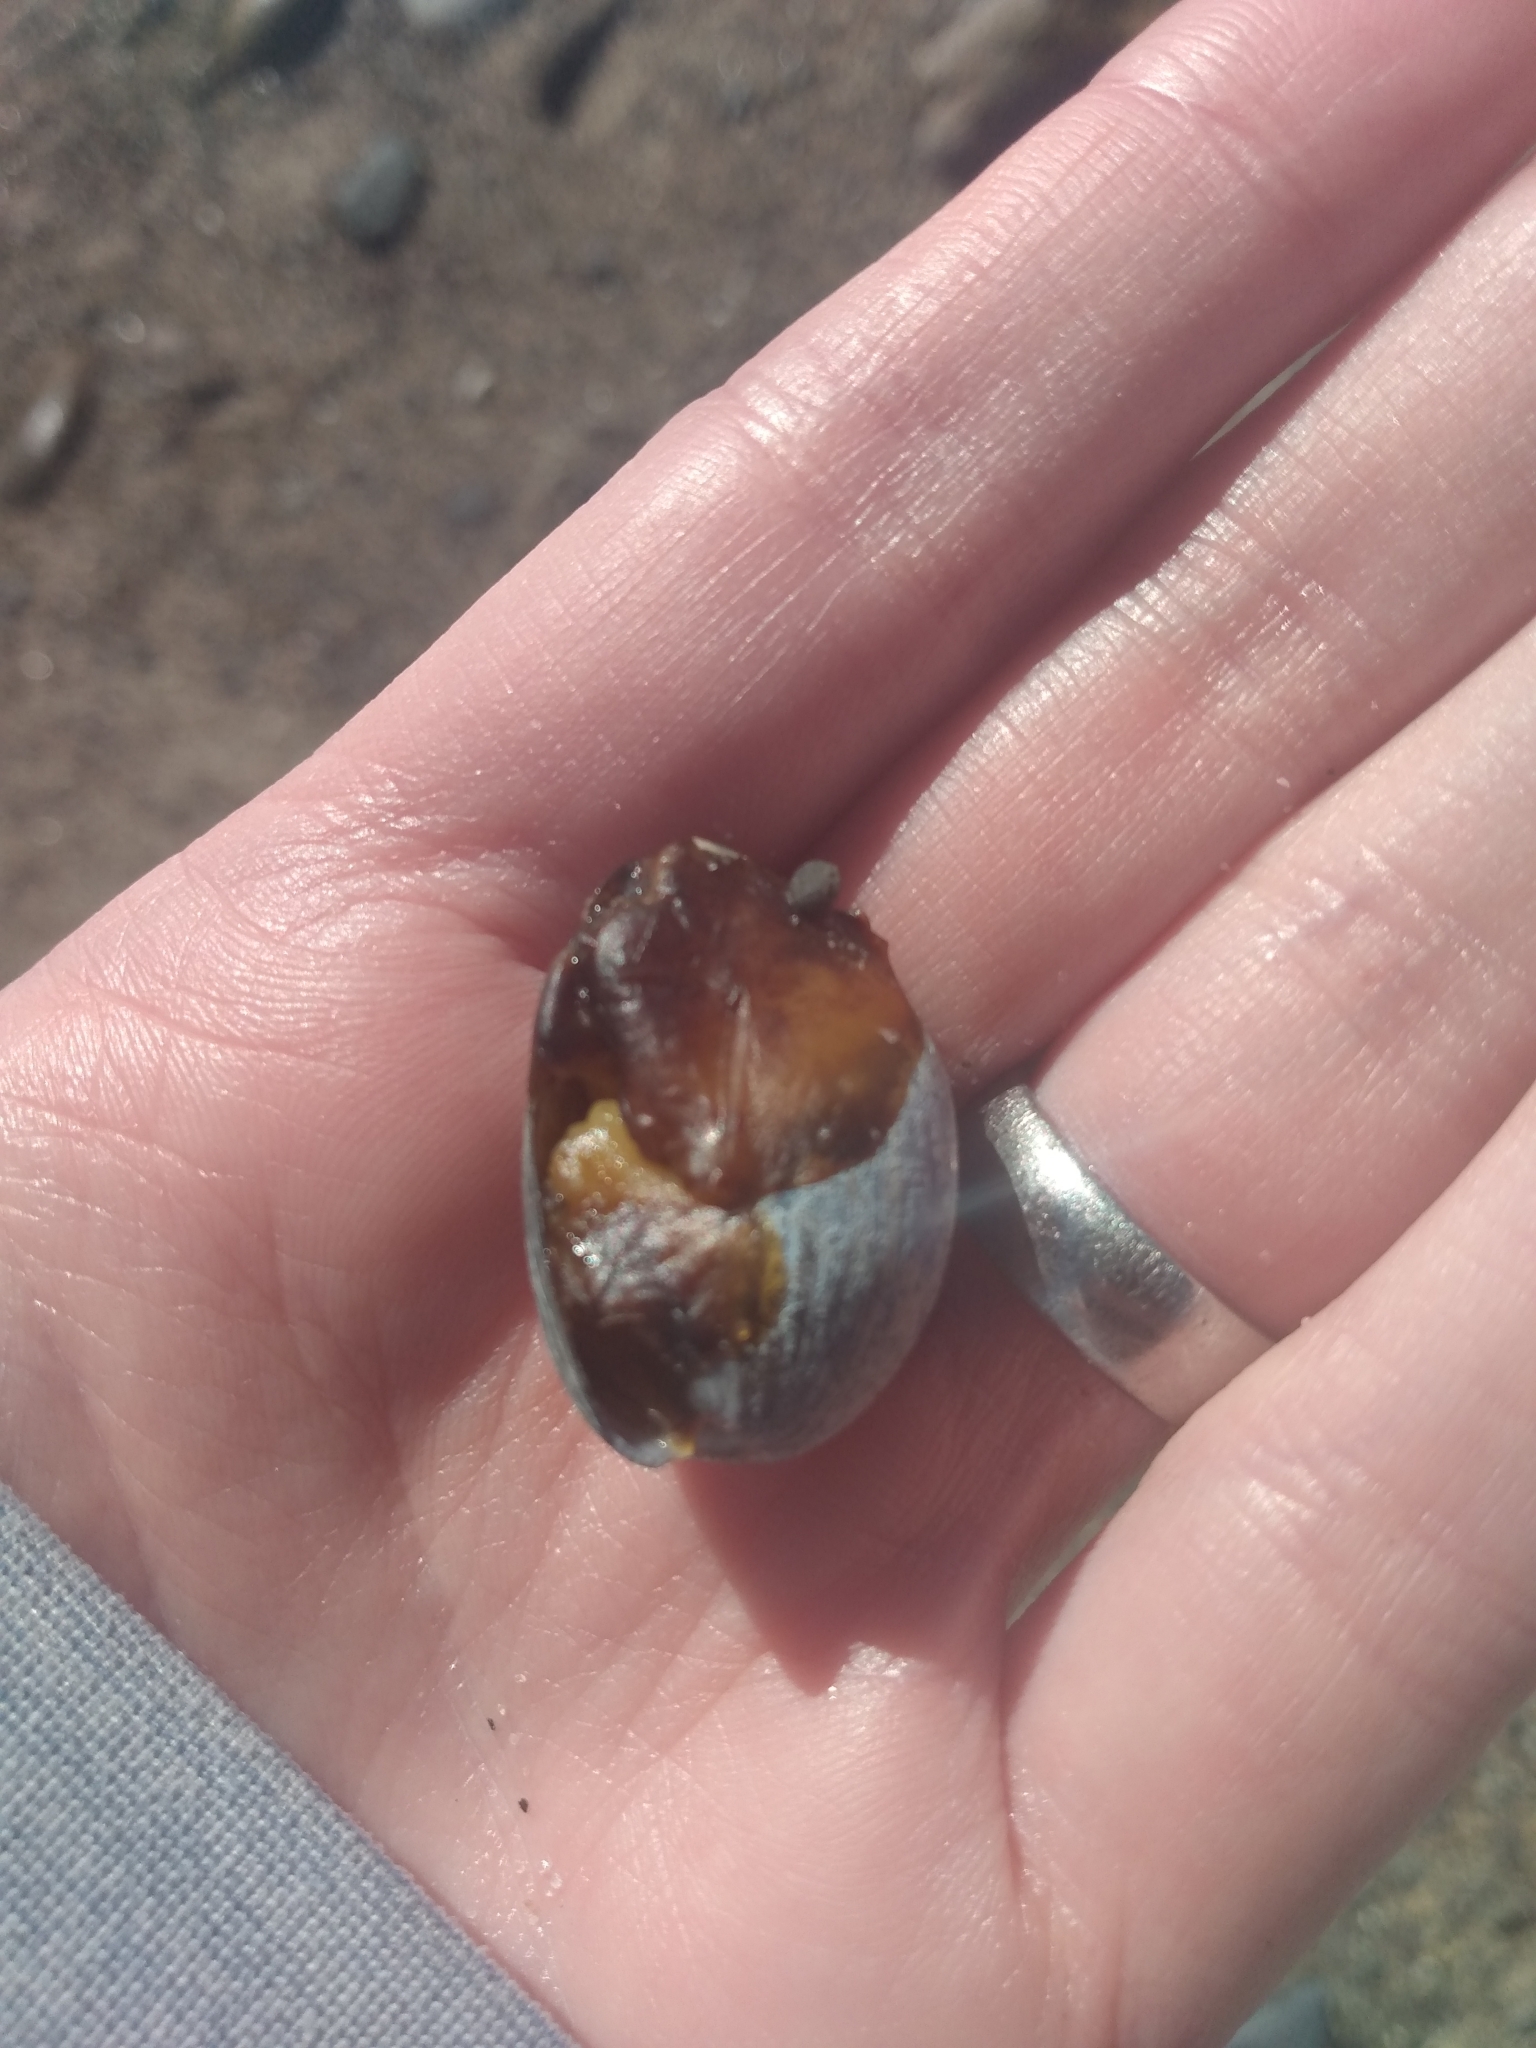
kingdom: Animalia
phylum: Mollusca
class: Gastropoda
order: Cephalaspidea
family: Bullidae
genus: Bulla
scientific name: Bulla gouldiana
